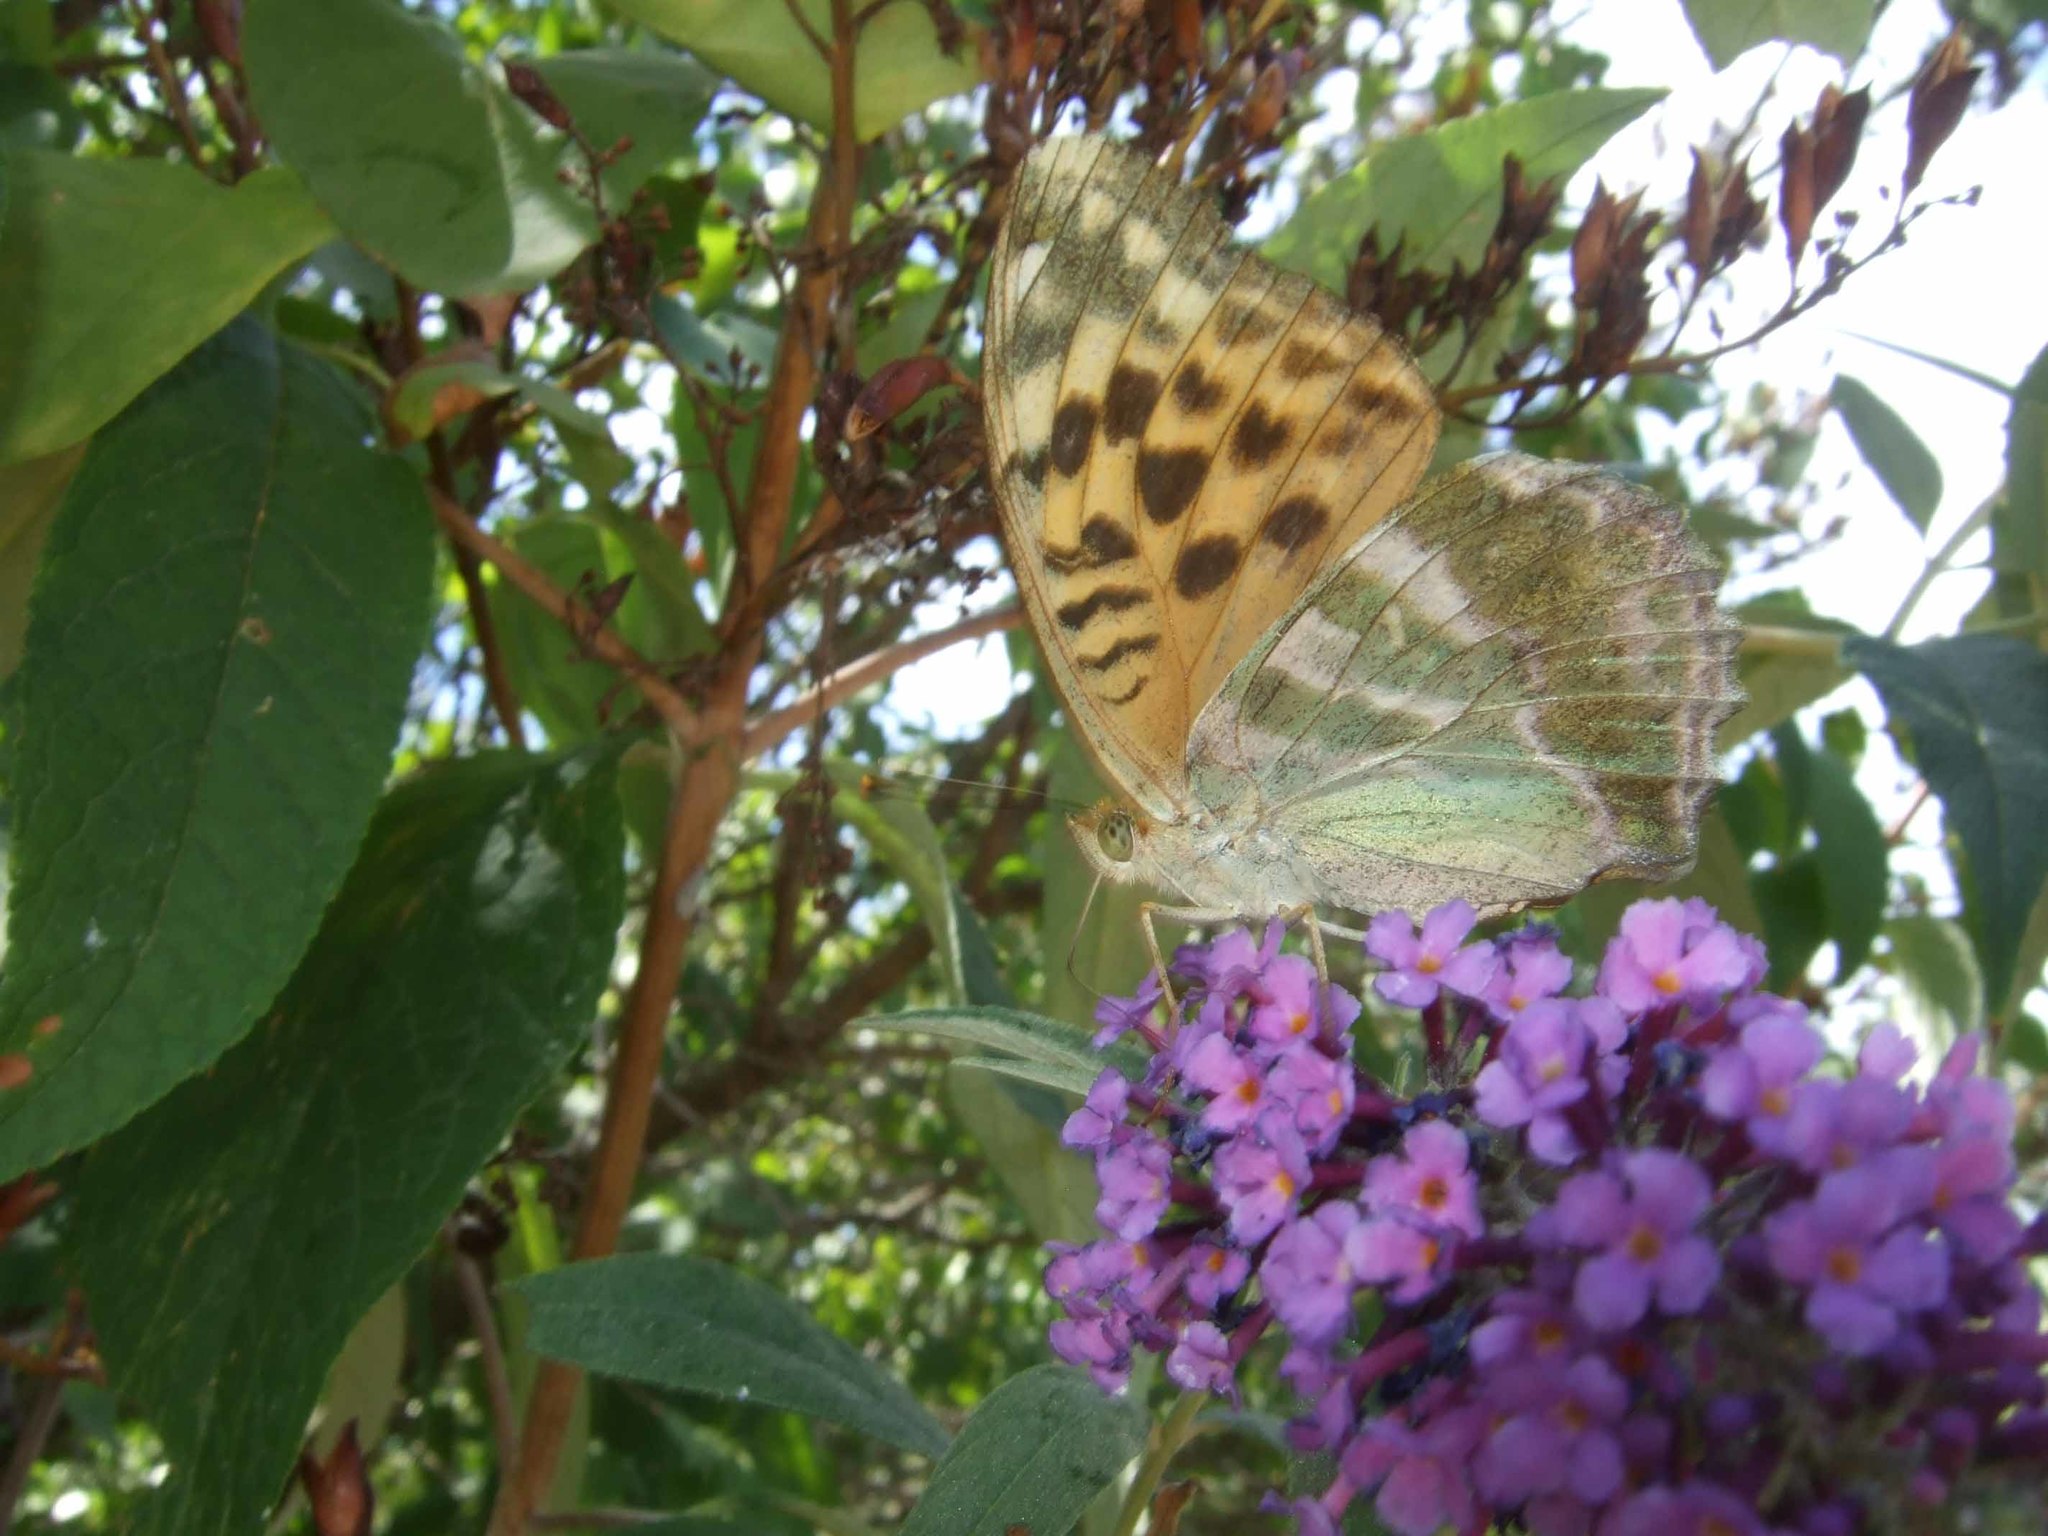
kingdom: Animalia
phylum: Arthropoda
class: Insecta
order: Lepidoptera
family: Nymphalidae
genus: Argynnis
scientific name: Argynnis paphia
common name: Silver-washed fritillary
